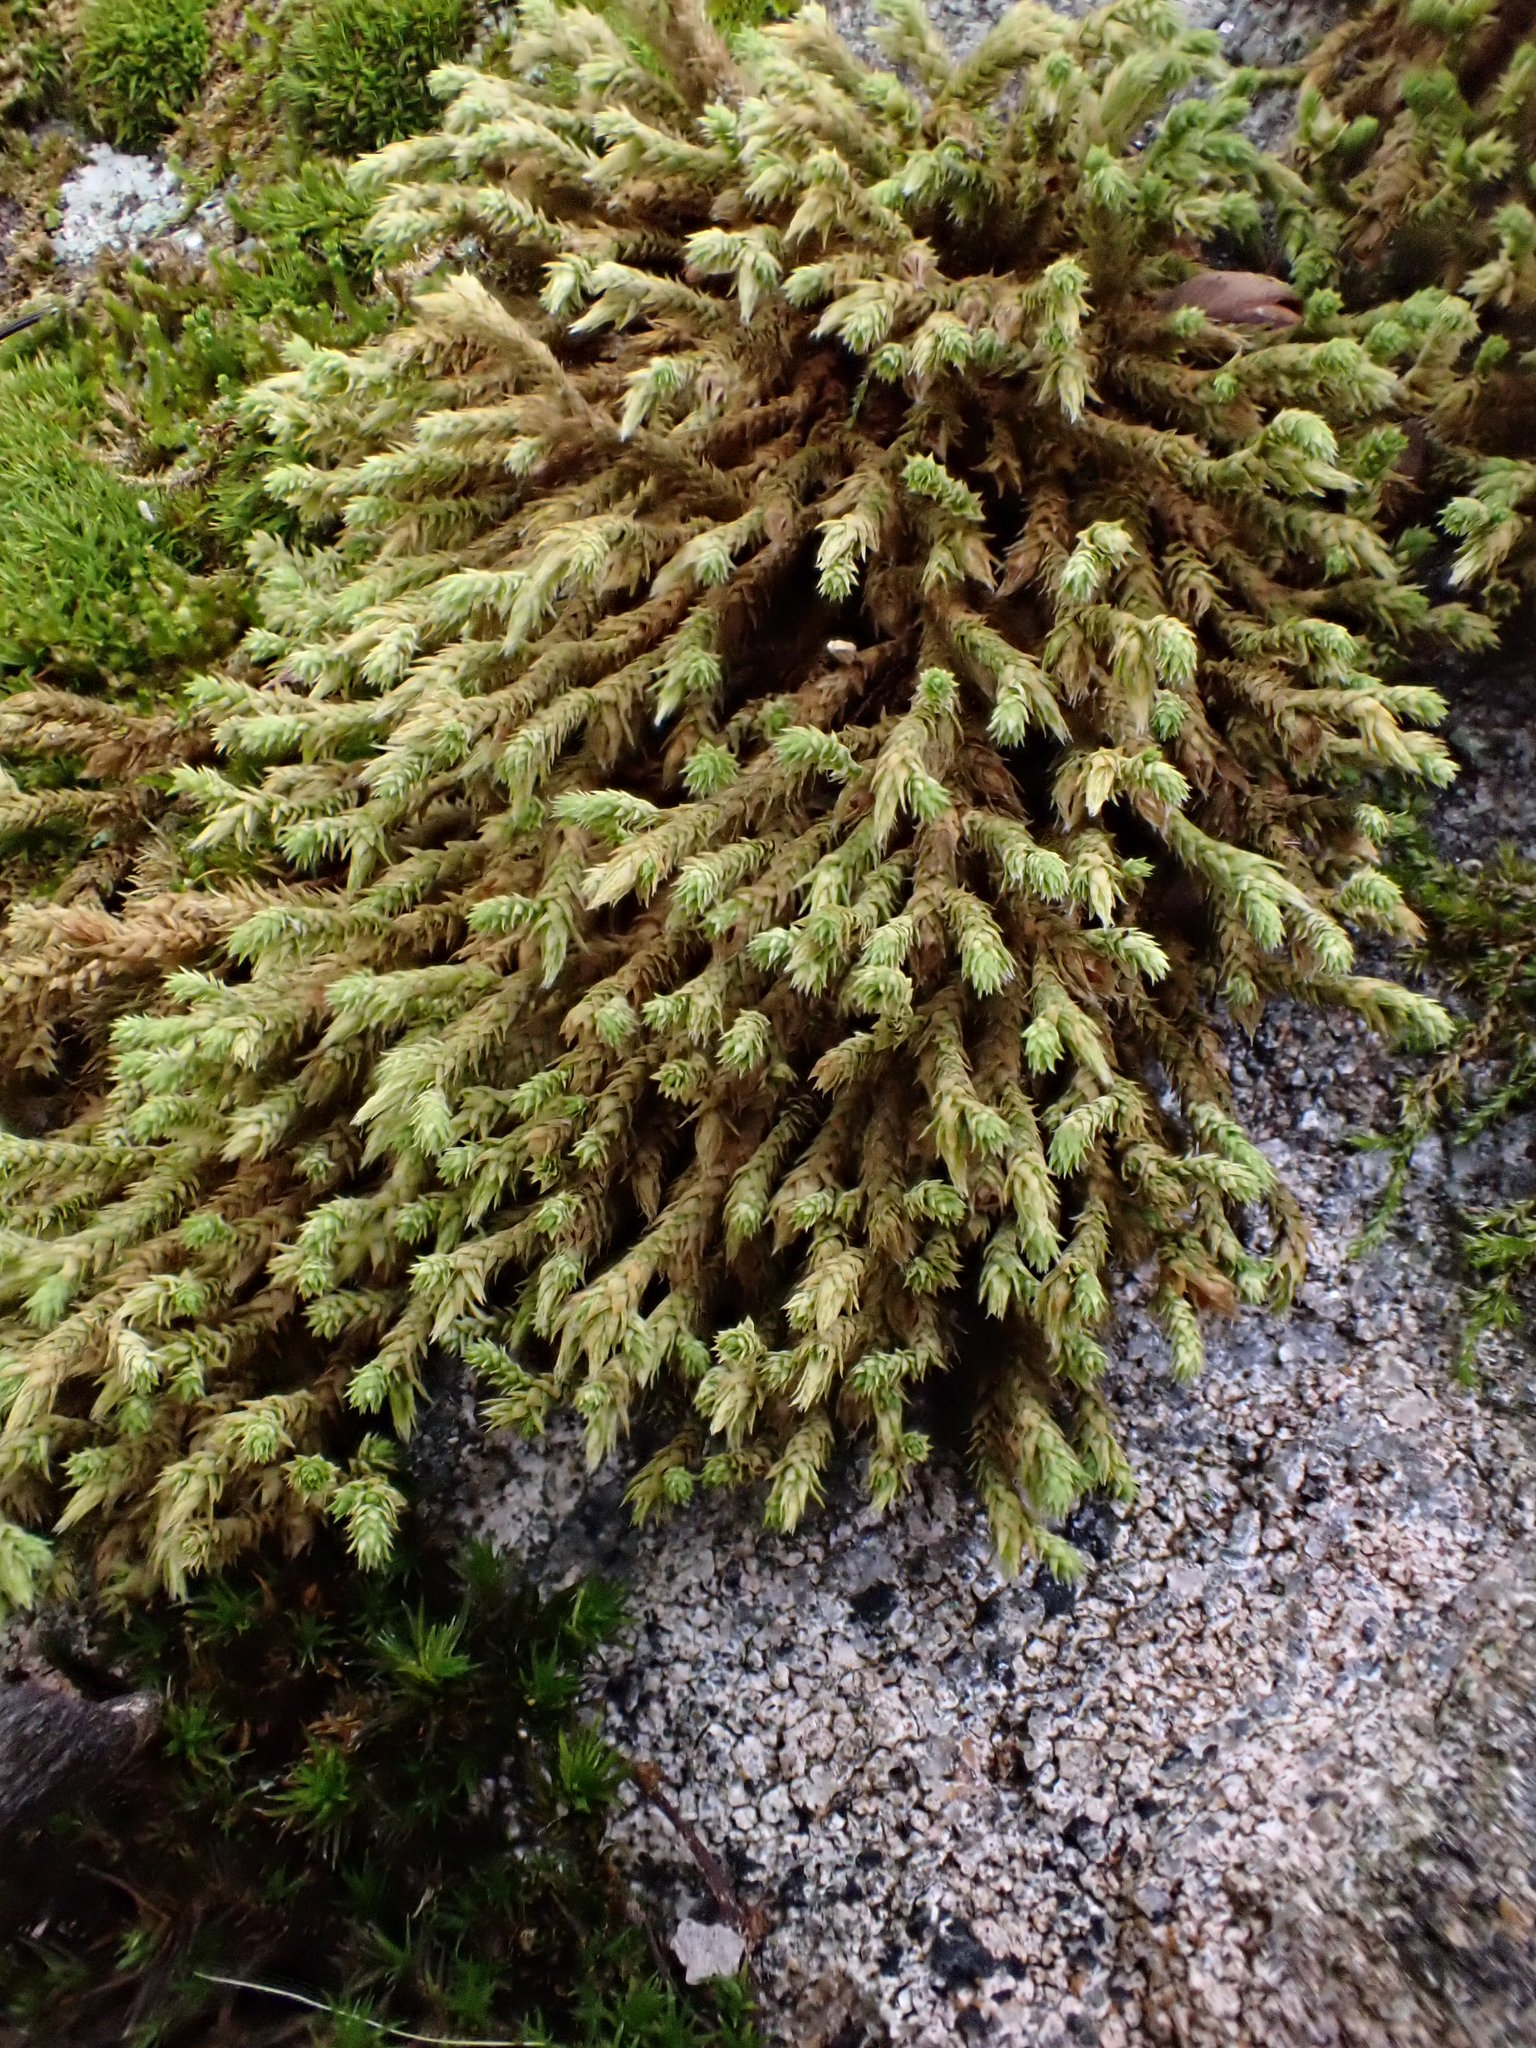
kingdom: Plantae
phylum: Bryophyta
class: Bryopsida
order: Hedwigiales
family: Hedwigiaceae
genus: Hedwigia
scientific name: Hedwigia ciliata
